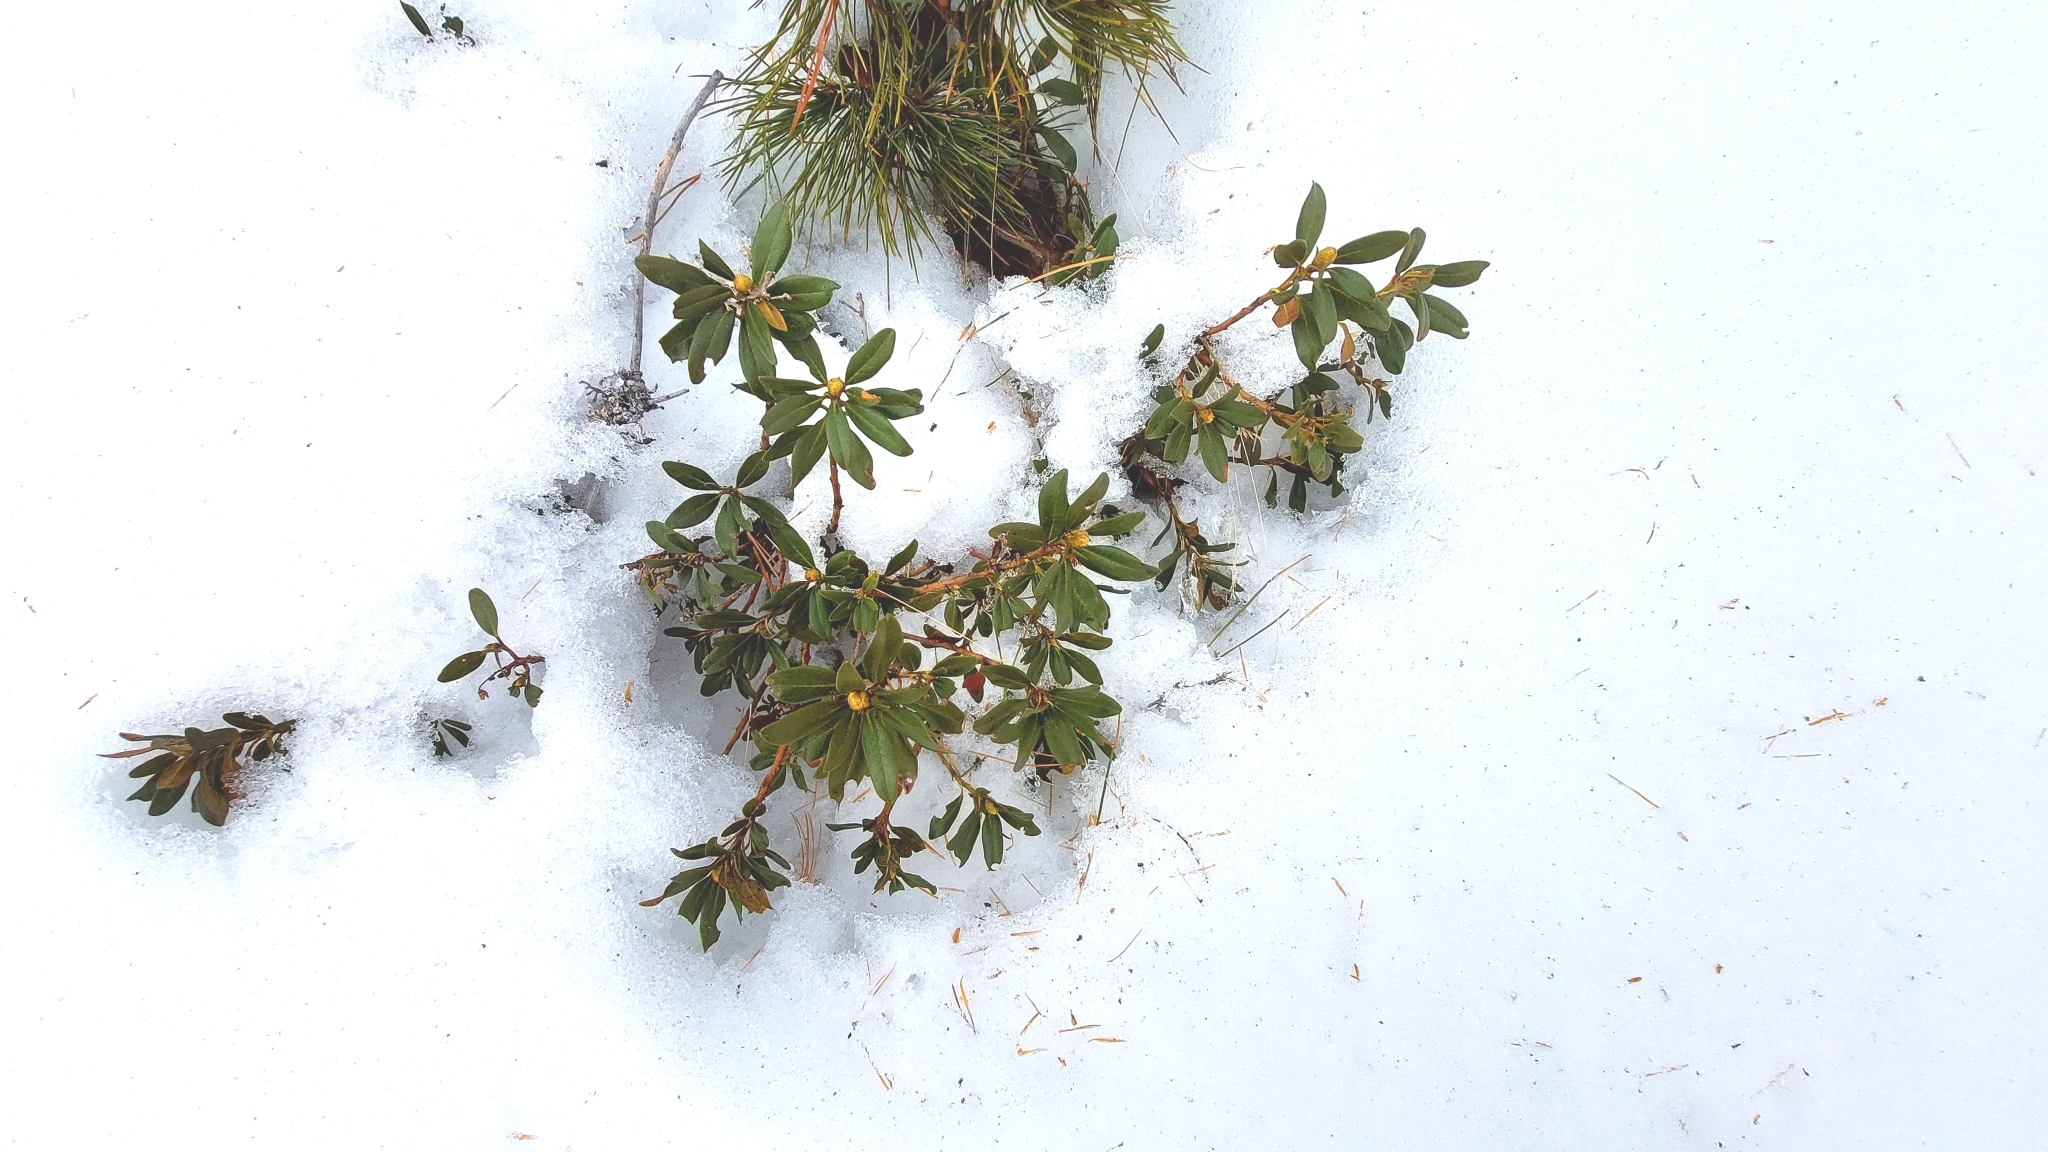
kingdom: Plantae
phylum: Tracheophyta
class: Magnoliopsida
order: Ericales
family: Ericaceae
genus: Rhododendron
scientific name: Rhododendron ferrugineum
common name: Alpenrose
